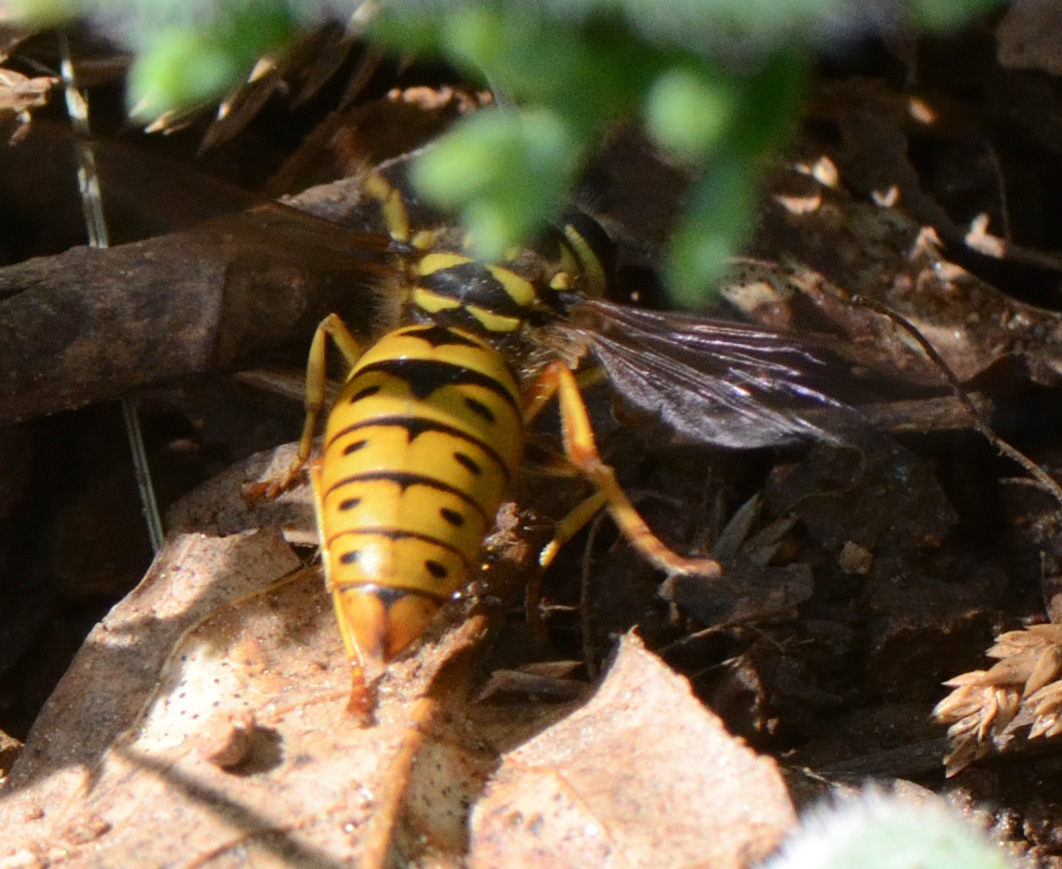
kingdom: Animalia
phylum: Arthropoda
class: Insecta
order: Hymenoptera
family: Vespidae
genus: Vespula
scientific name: Vespula maculifrons
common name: Eastern yellowjacket
